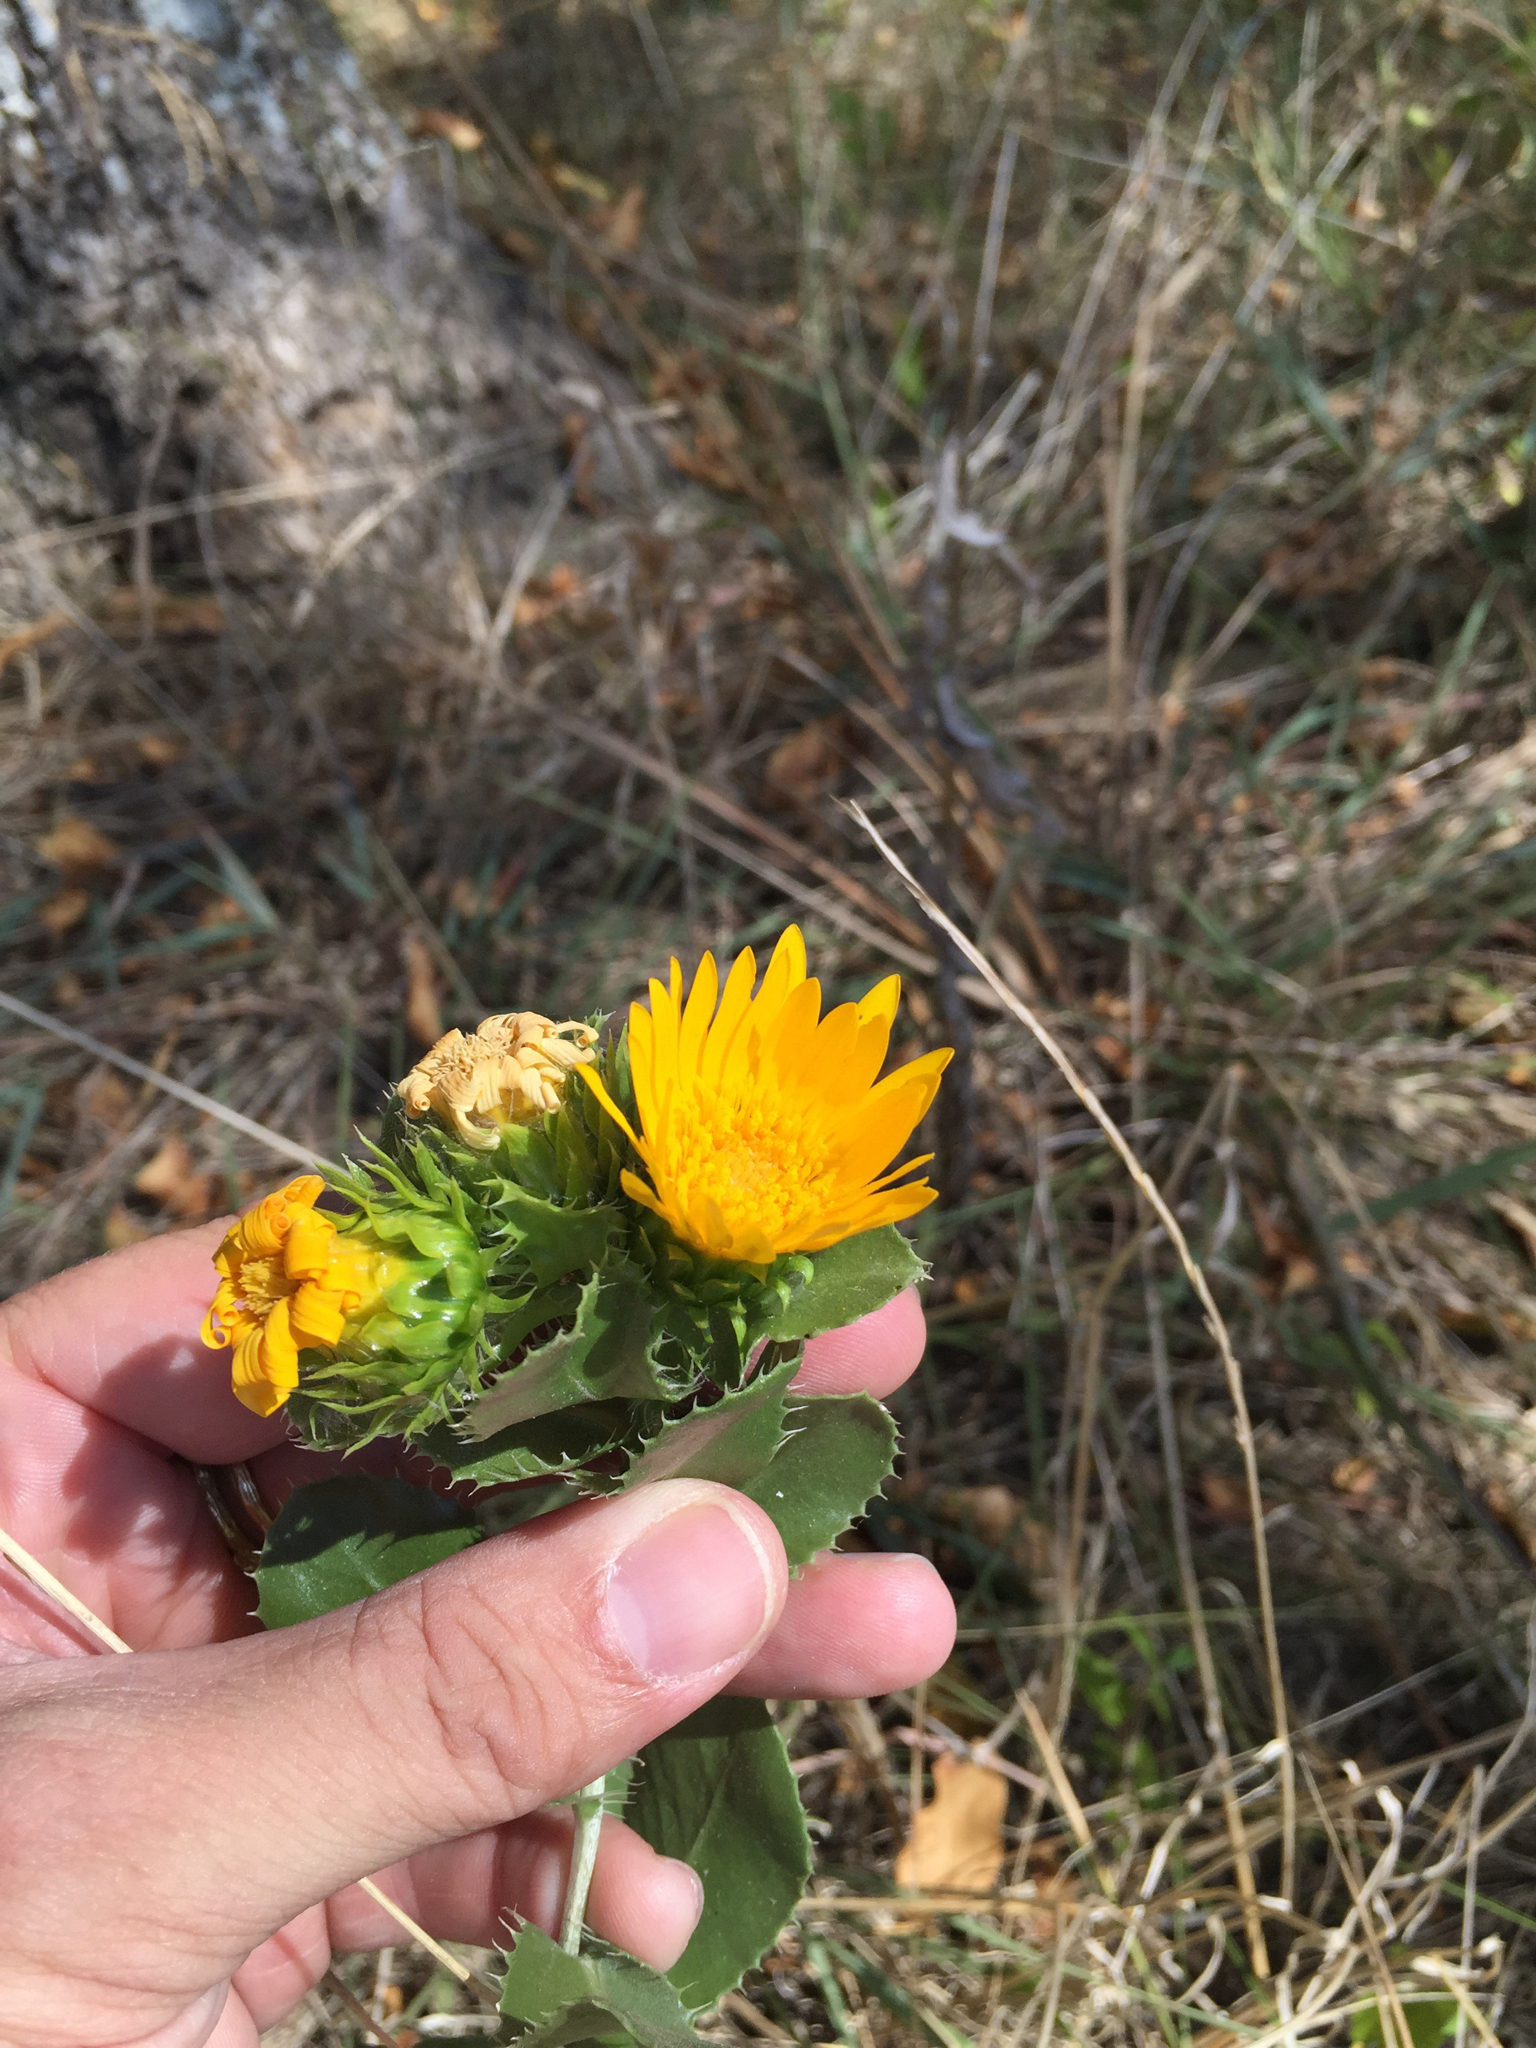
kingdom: Plantae
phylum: Tracheophyta
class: Magnoliopsida
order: Asterales
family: Asteraceae
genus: Grindelia
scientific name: Grindelia ciliata
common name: Goldenweed
